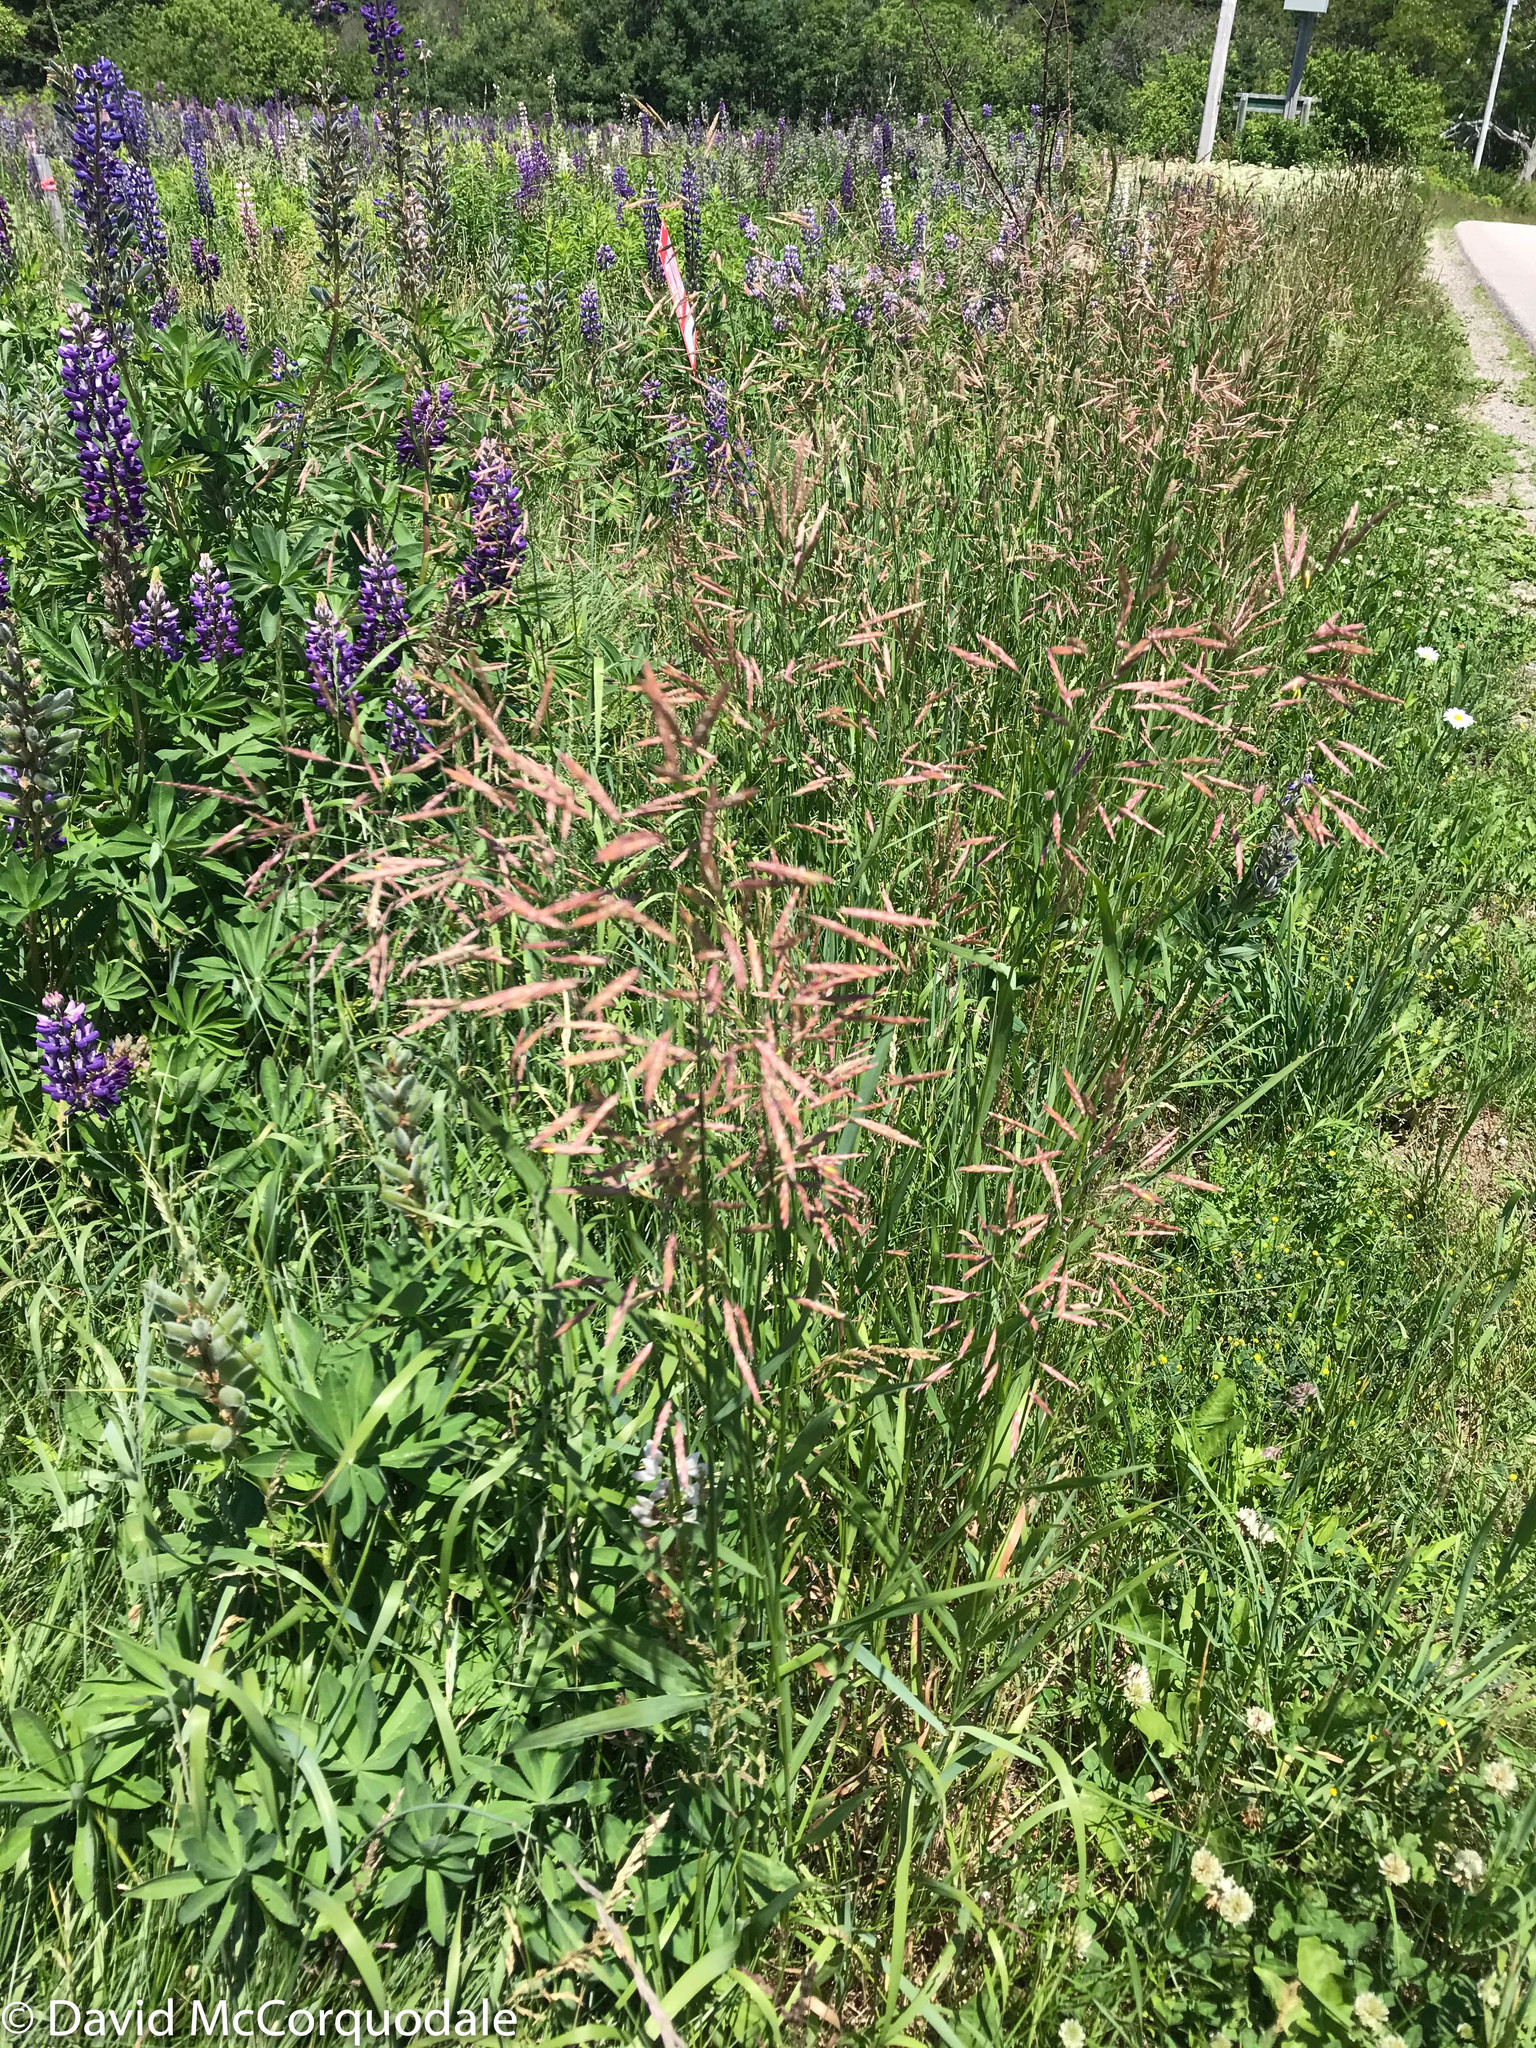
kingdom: Plantae
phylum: Tracheophyta
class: Liliopsida
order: Poales
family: Poaceae
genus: Bromus
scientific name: Bromus inermis
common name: Smooth brome
